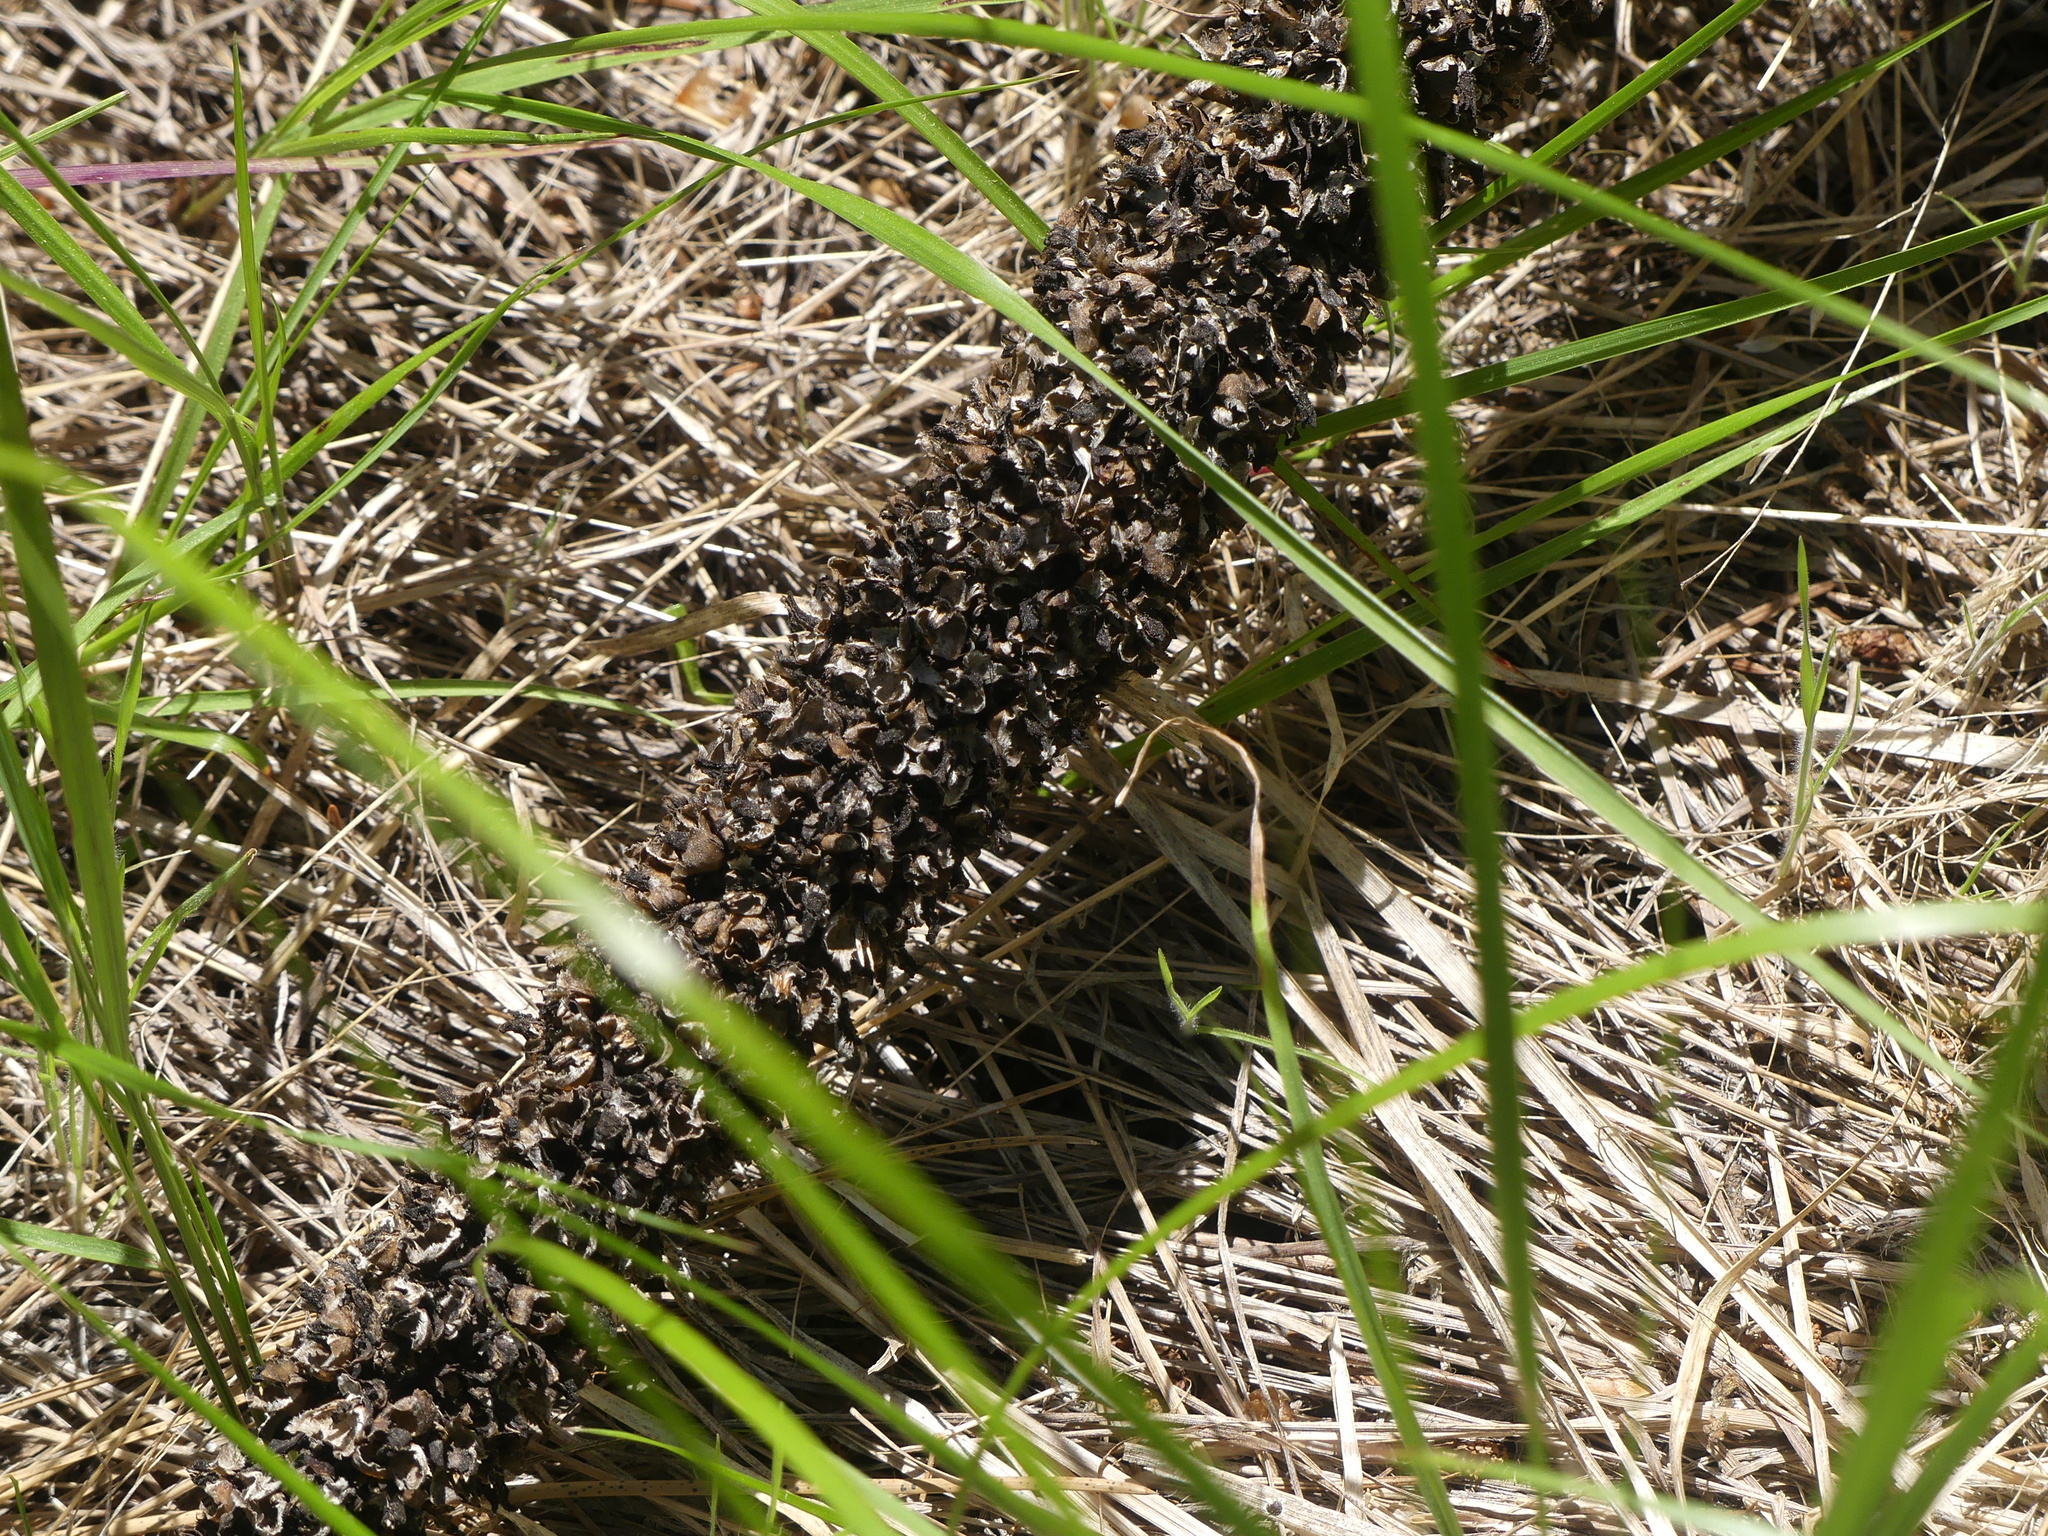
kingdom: Plantae
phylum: Tracheophyta
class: Magnoliopsida
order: Lamiales
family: Scrophulariaceae
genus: Verbascum
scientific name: Verbascum thapsus
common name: Common mullein
